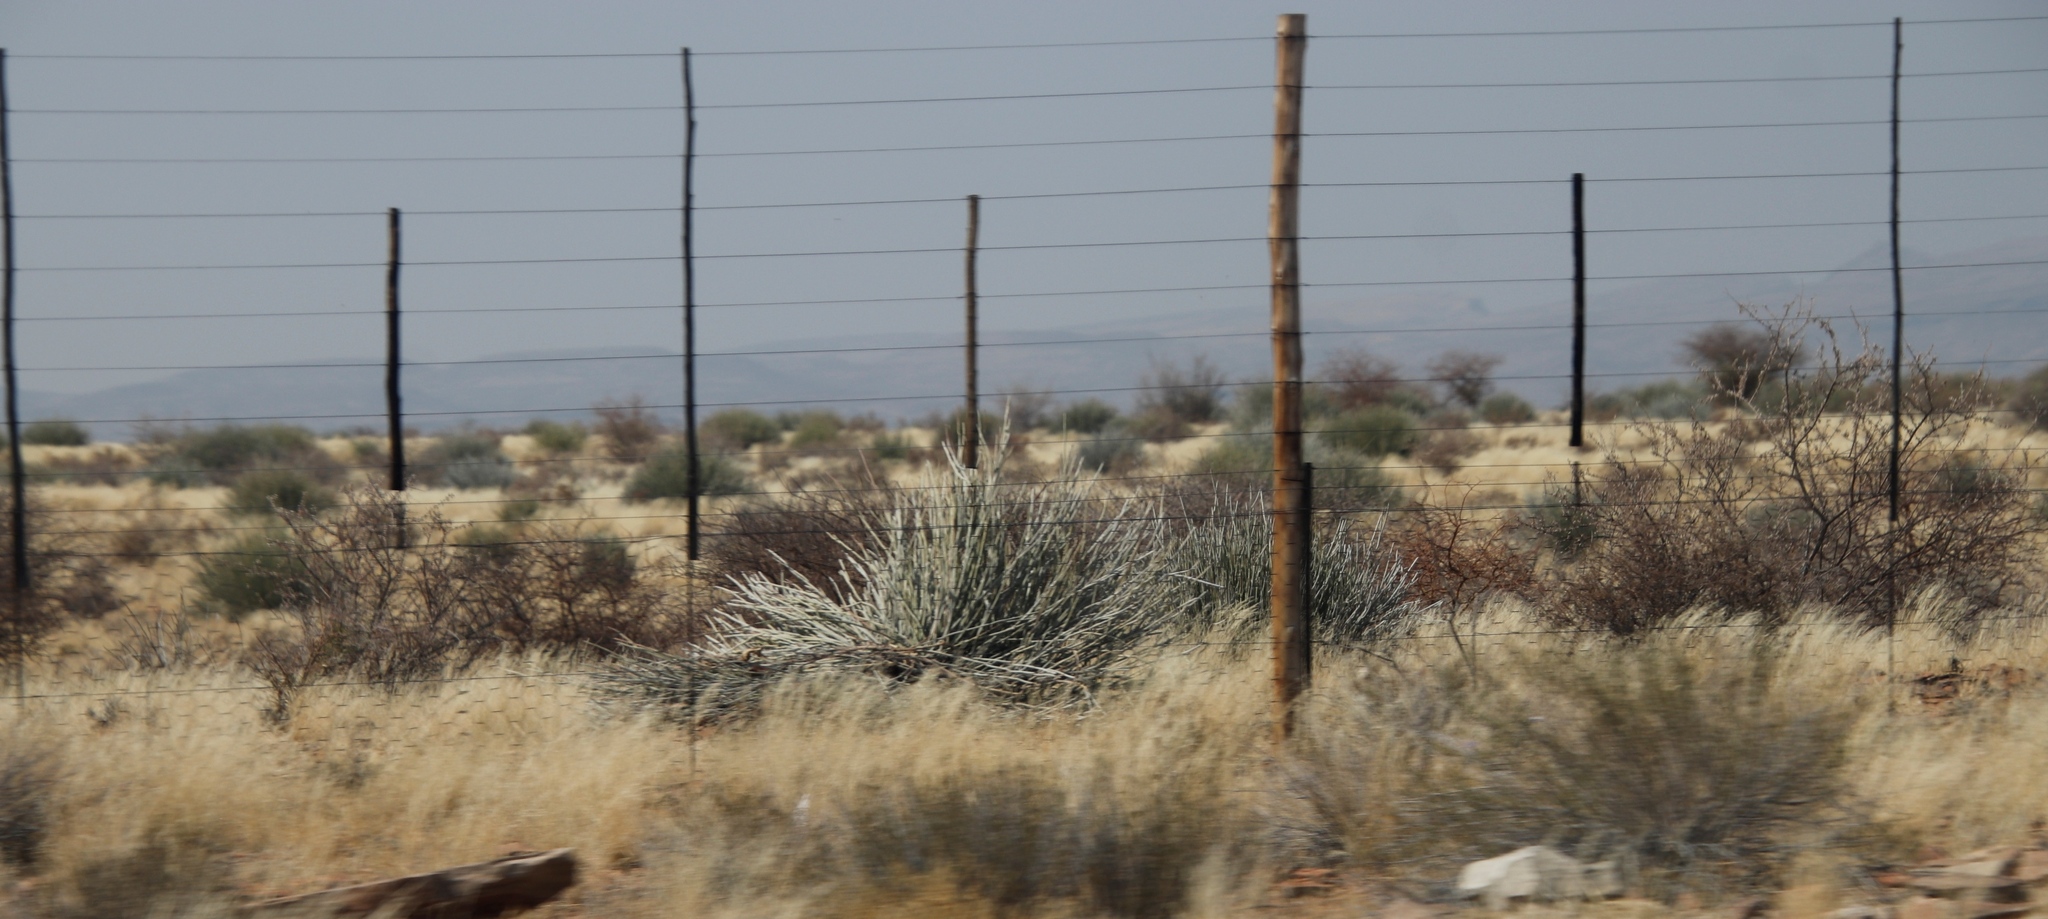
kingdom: Plantae
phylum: Tracheophyta
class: Magnoliopsida
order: Malpighiales
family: Euphorbiaceae
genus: Euphorbia
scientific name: Euphorbia gregaria
